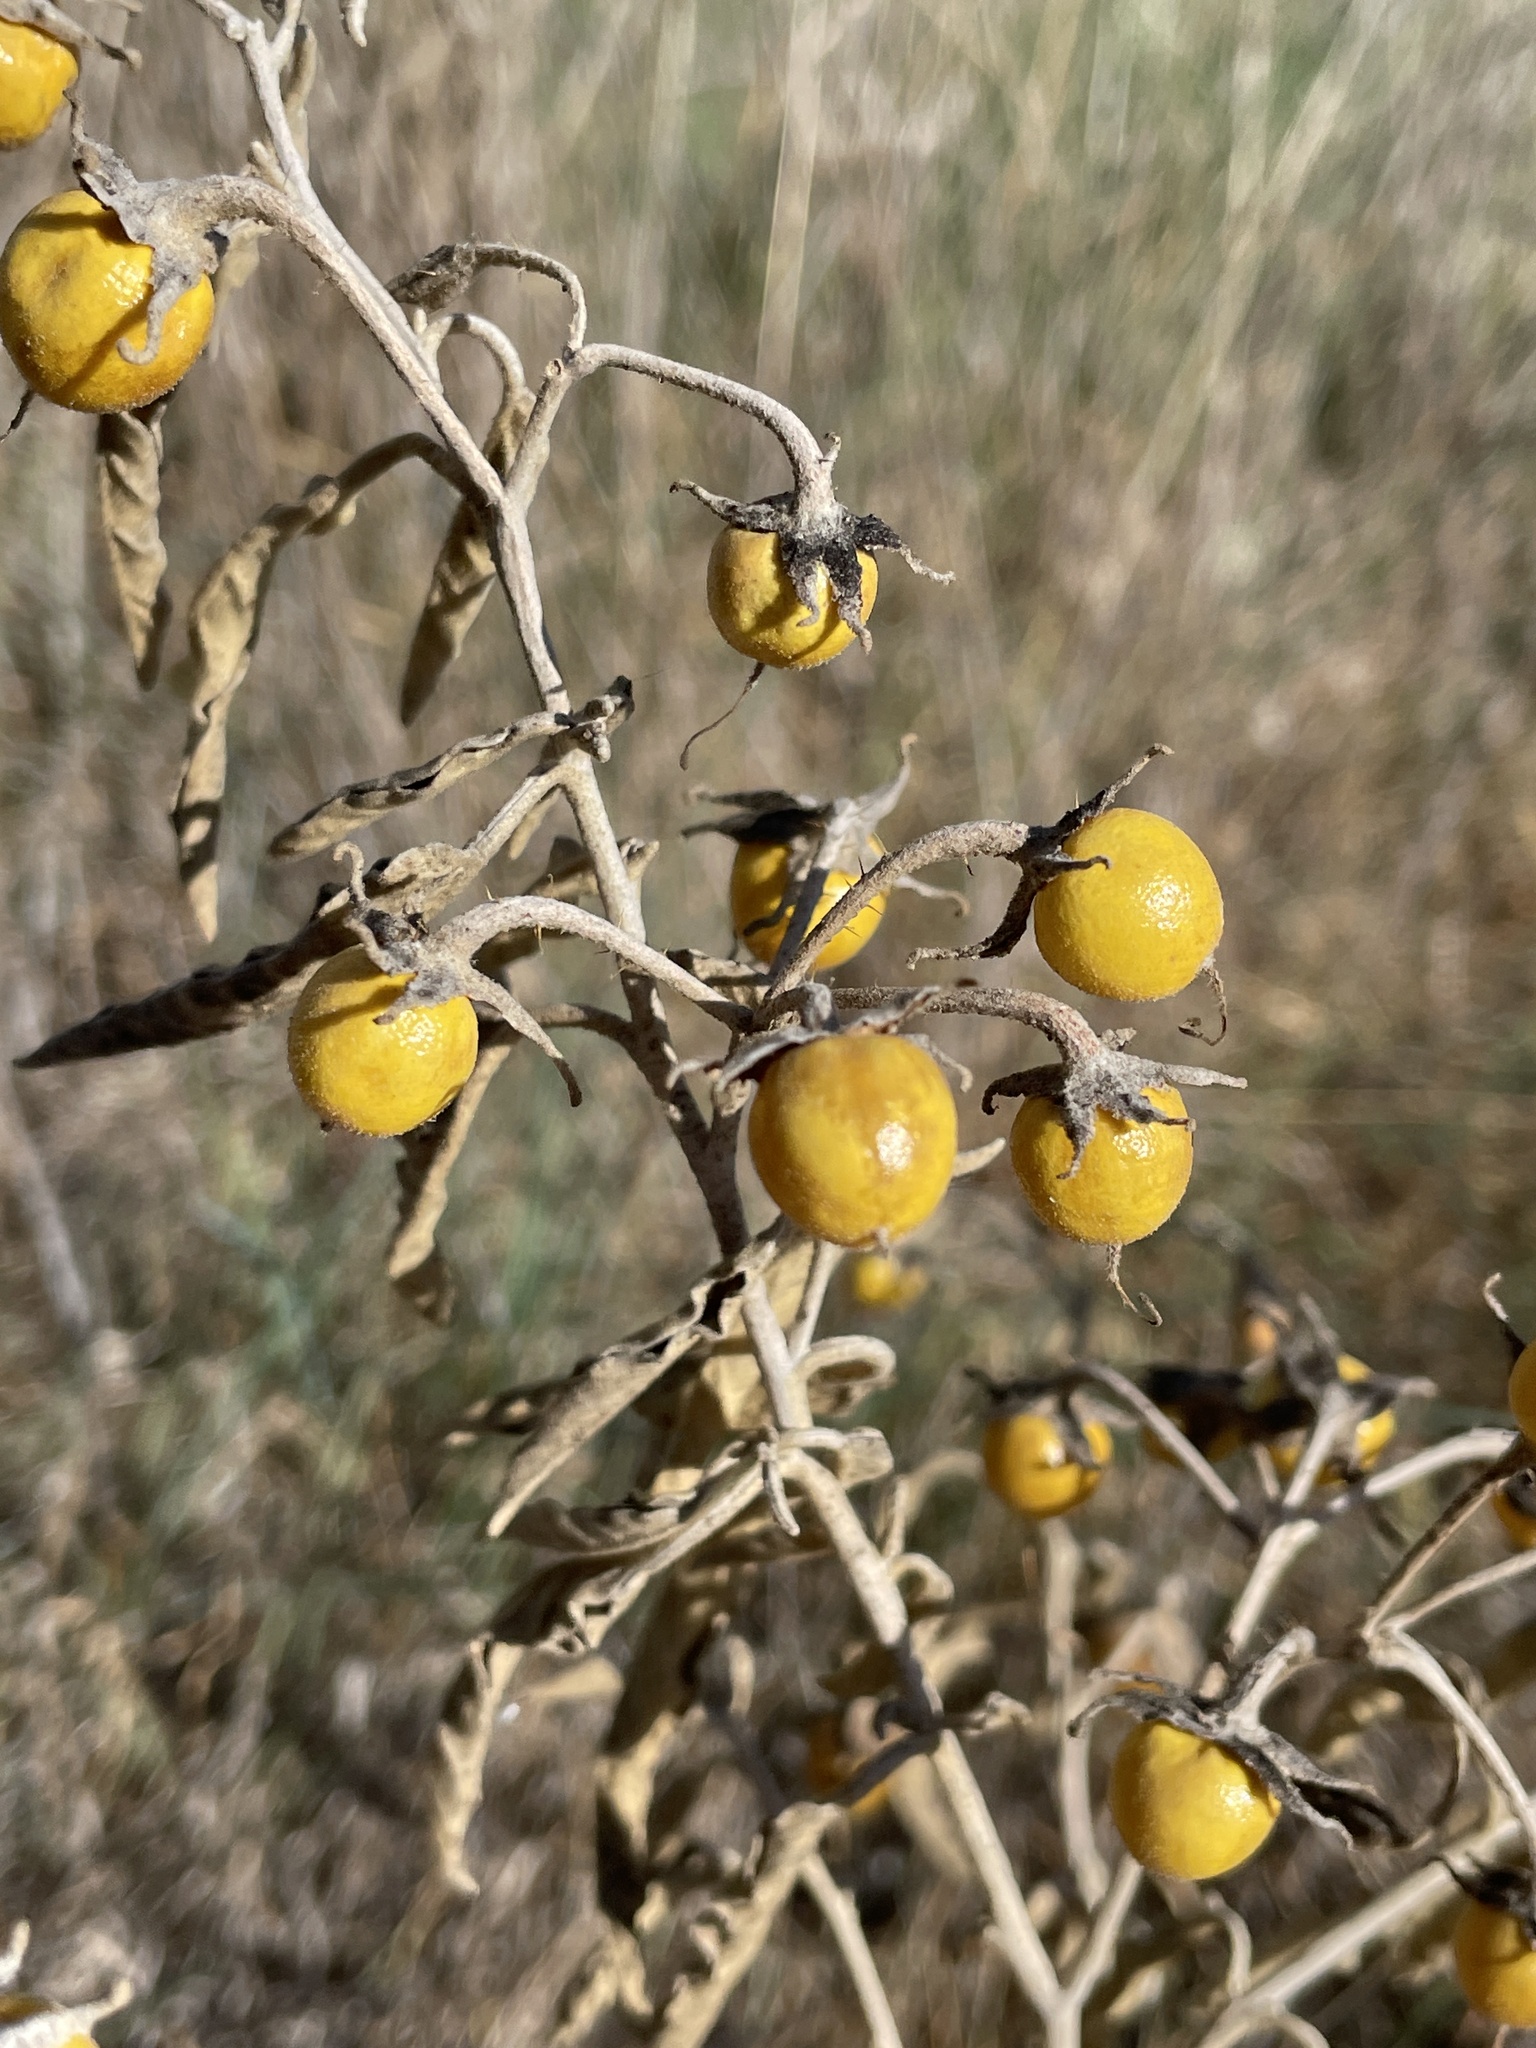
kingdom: Plantae
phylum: Tracheophyta
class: Magnoliopsida
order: Solanales
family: Solanaceae
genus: Solanum
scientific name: Solanum elaeagnifolium
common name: Silverleaf nightshade
